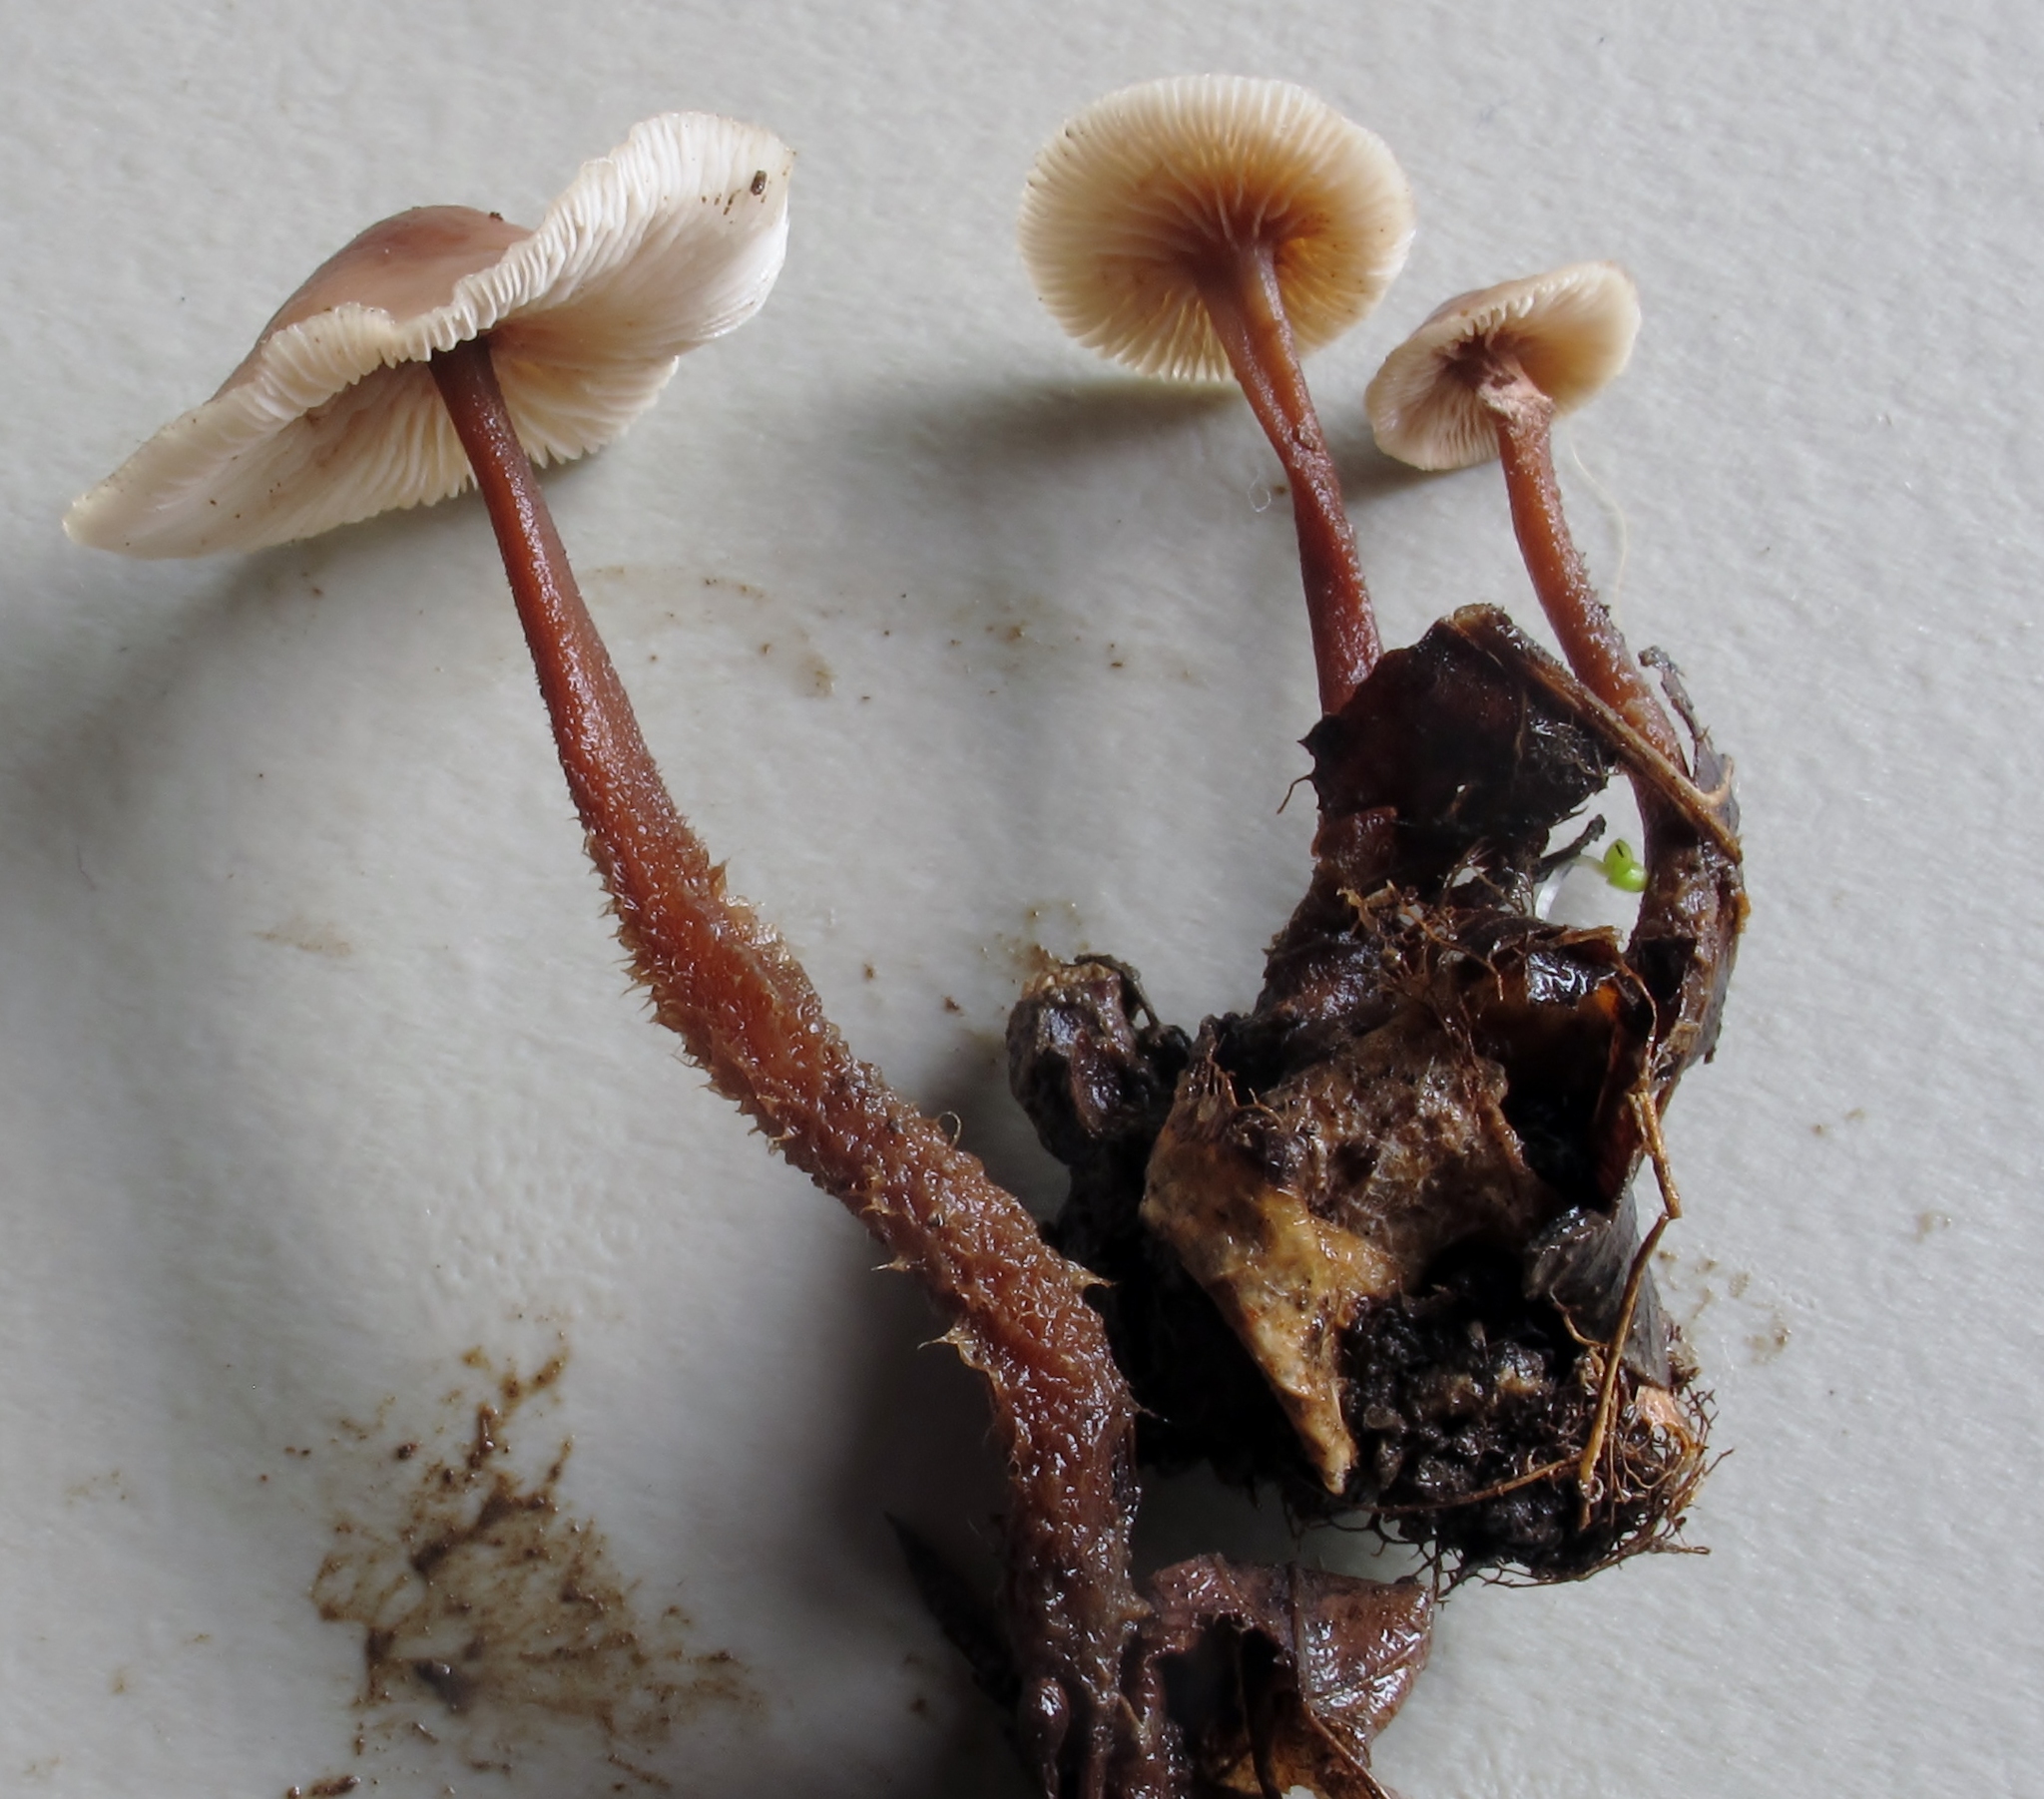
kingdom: Fungi
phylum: Basidiomycota
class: Agaricomycetes
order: Agaricales
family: Omphalotaceae
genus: Gymnopus
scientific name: Gymnopus semihirtipes
